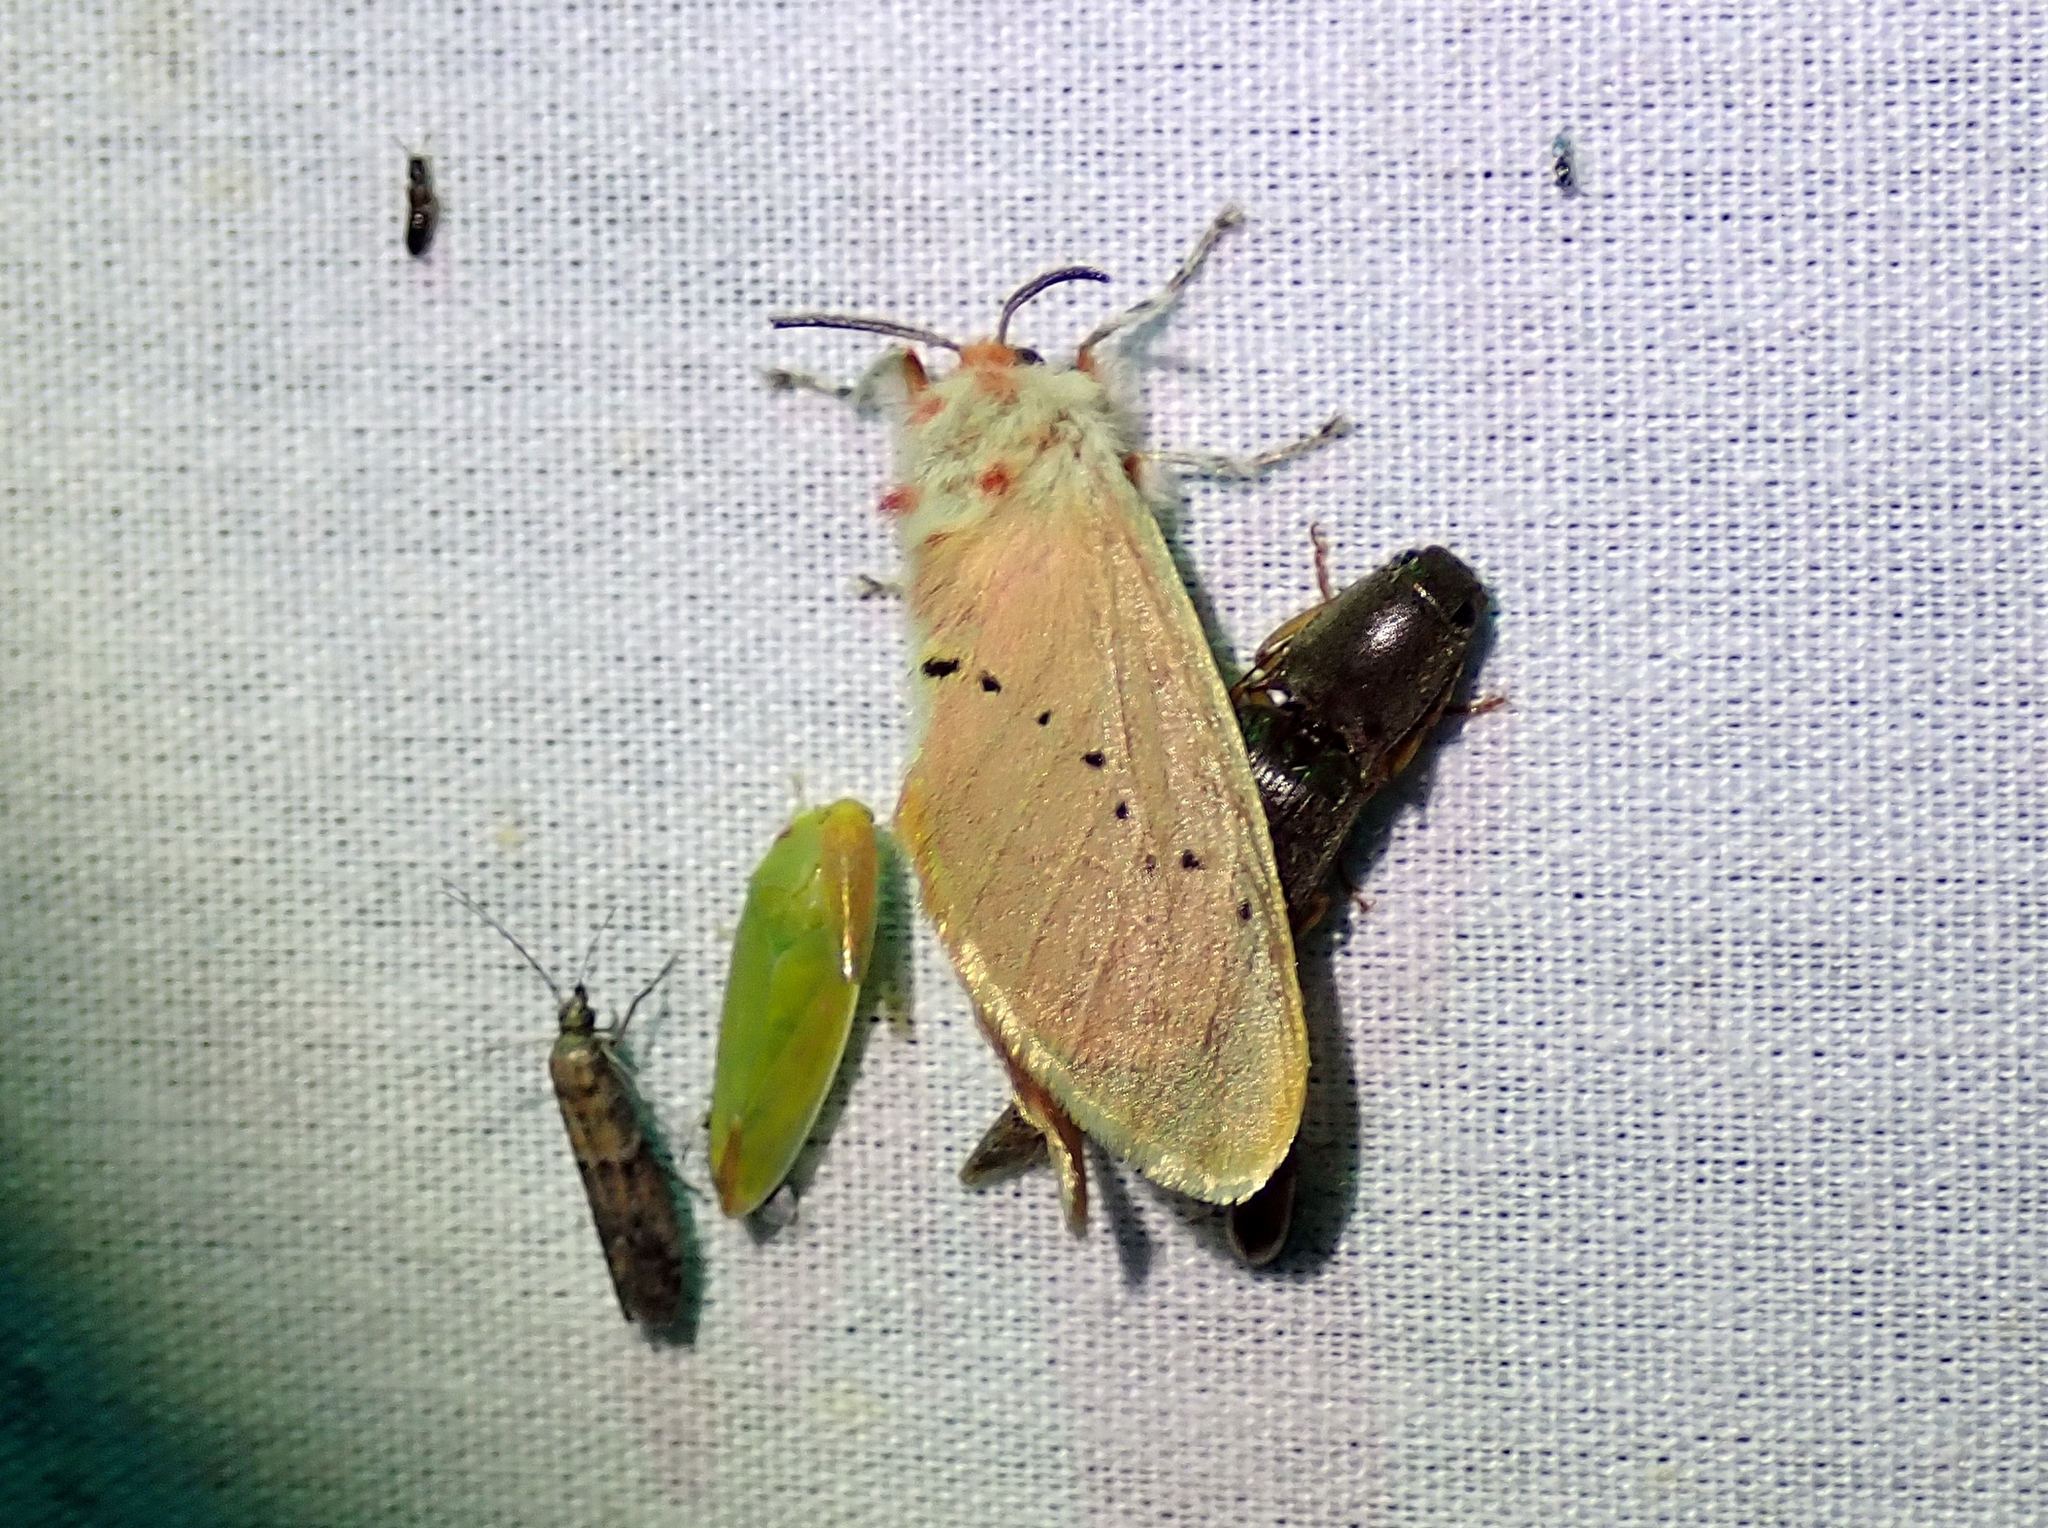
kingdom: Animalia
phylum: Arthropoda
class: Insecta
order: Lepidoptera
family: Megalopygidae
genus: Trosia
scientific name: Trosia obsolescens
